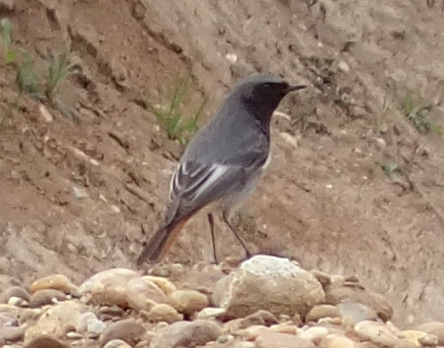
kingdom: Animalia
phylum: Chordata
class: Aves
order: Passeriformes
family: Muscicapidae
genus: Phoenicurus
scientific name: Phoenicurus ochruros
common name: Black redstart
